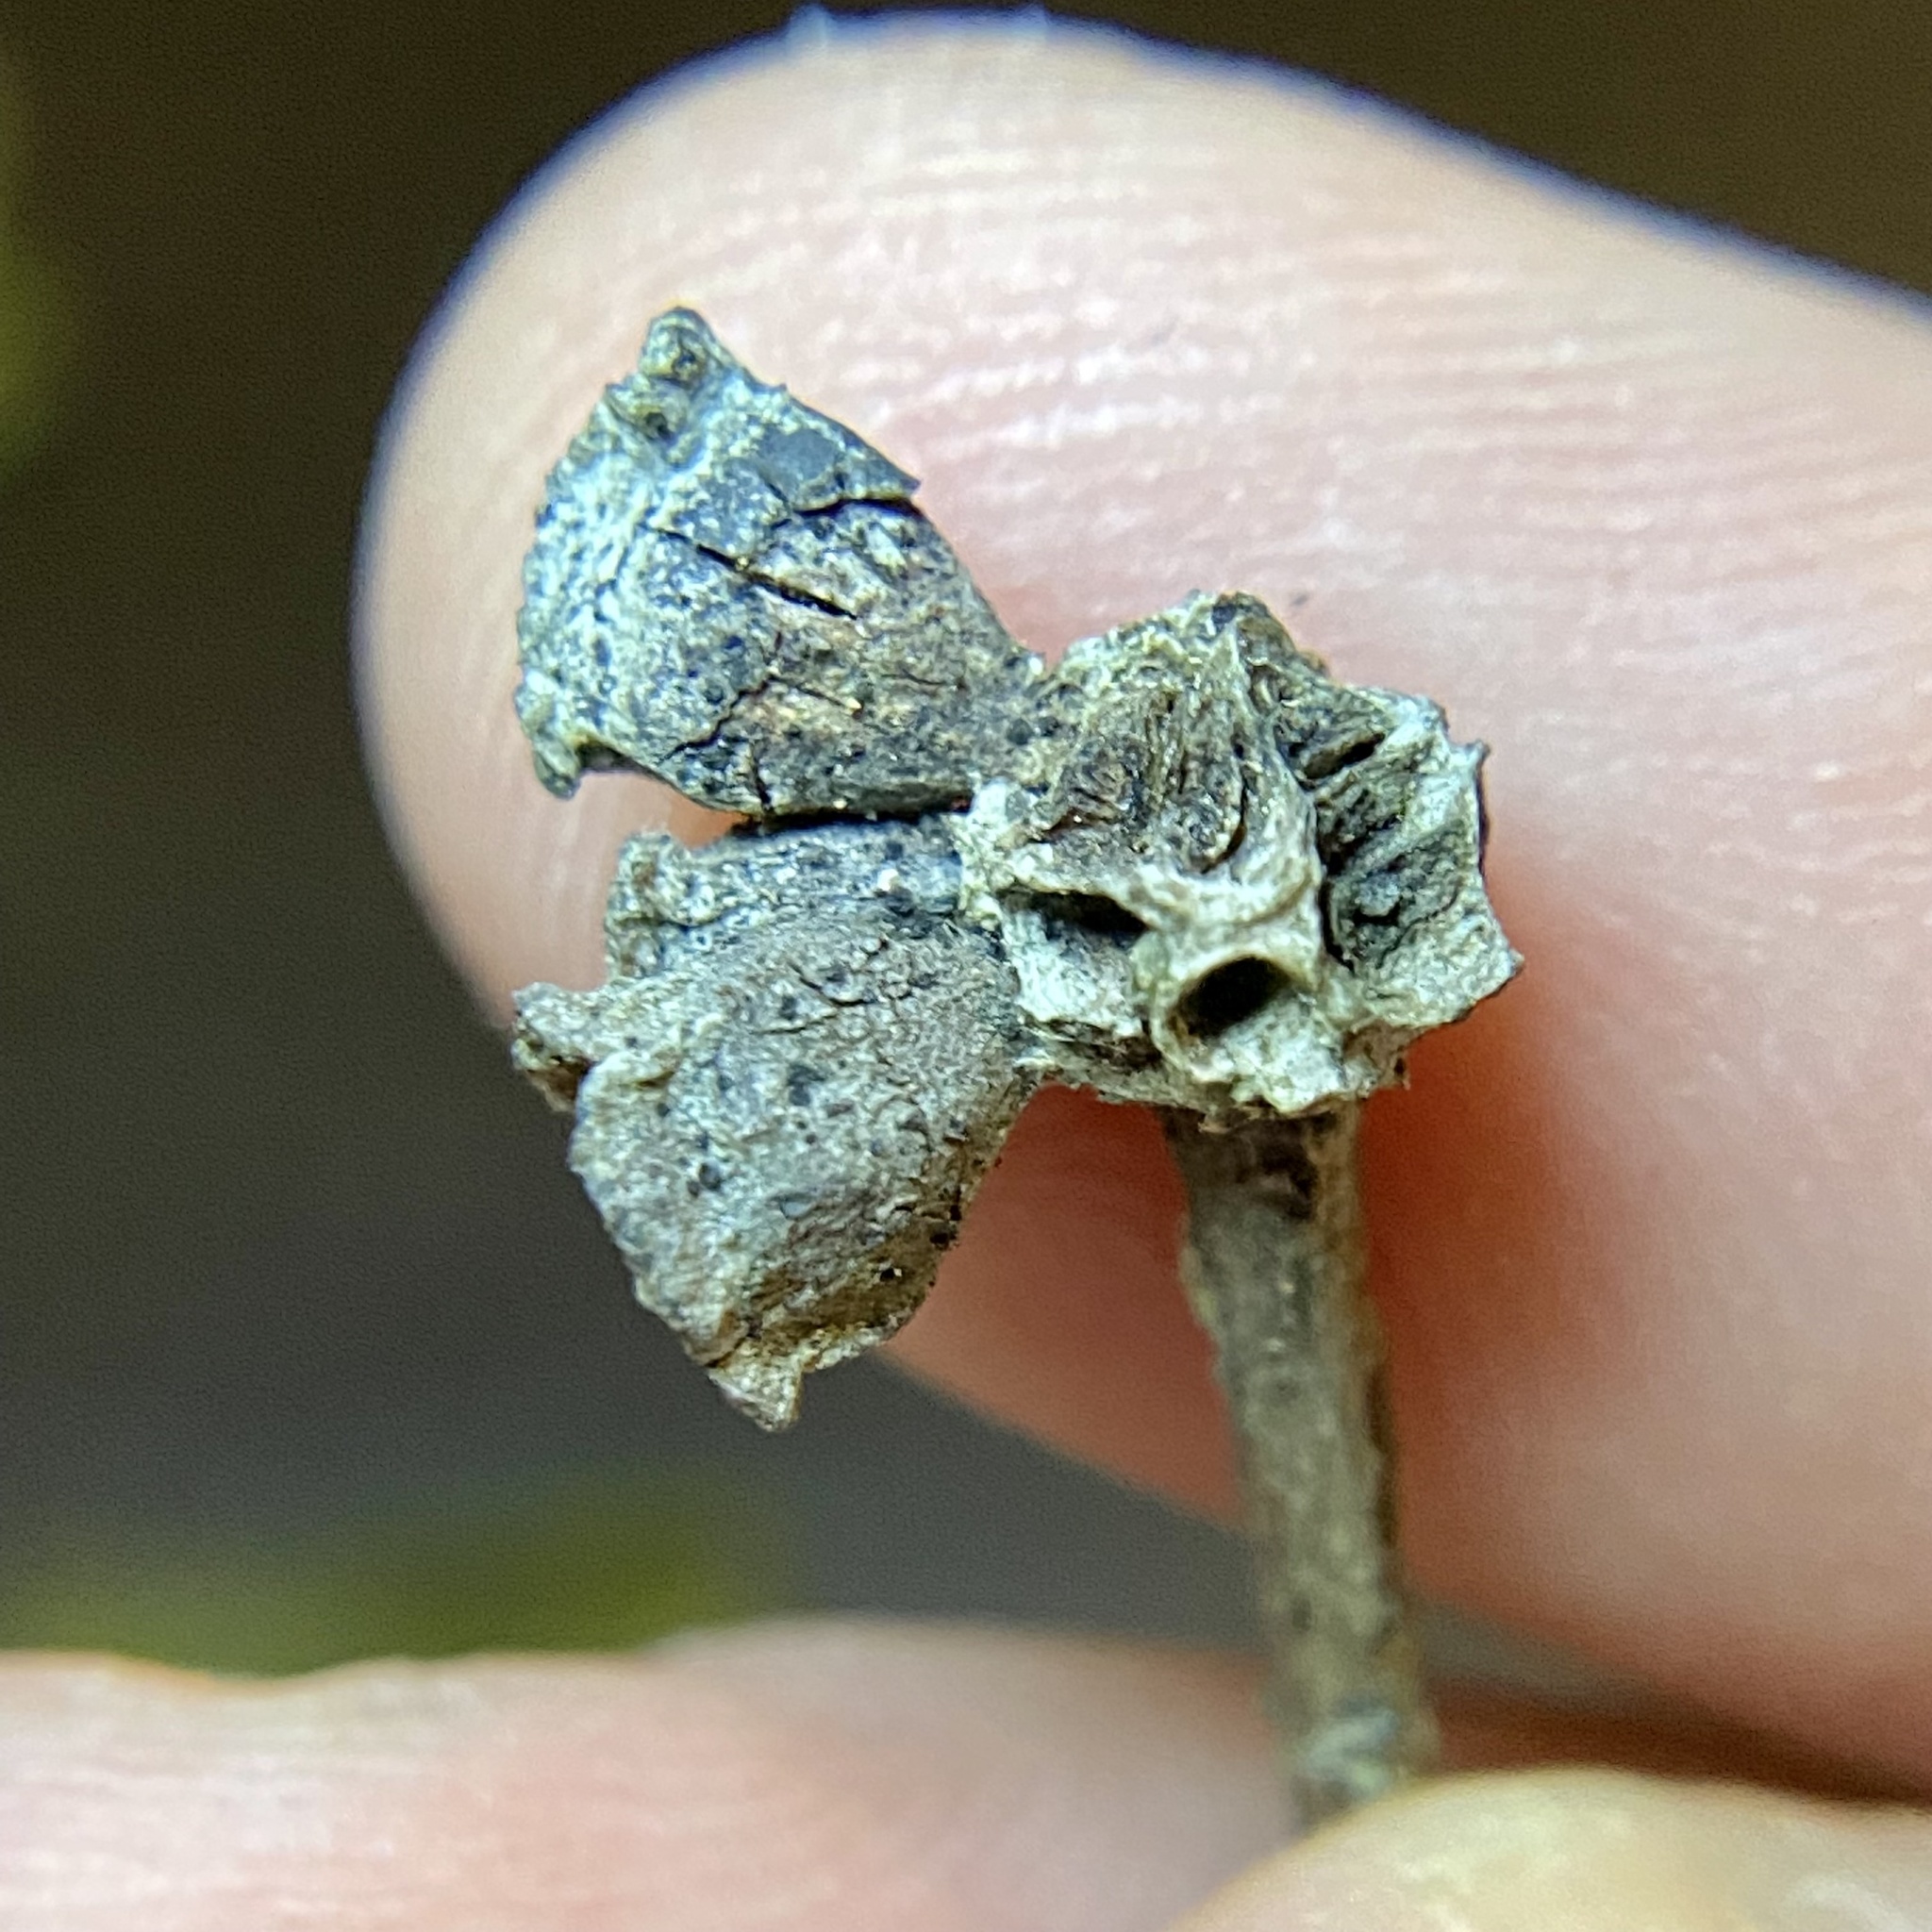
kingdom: Animalia
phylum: Arthropoda
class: Insecta
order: Hymenoptera
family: Cynipidae
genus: Andricus
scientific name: Andricus
